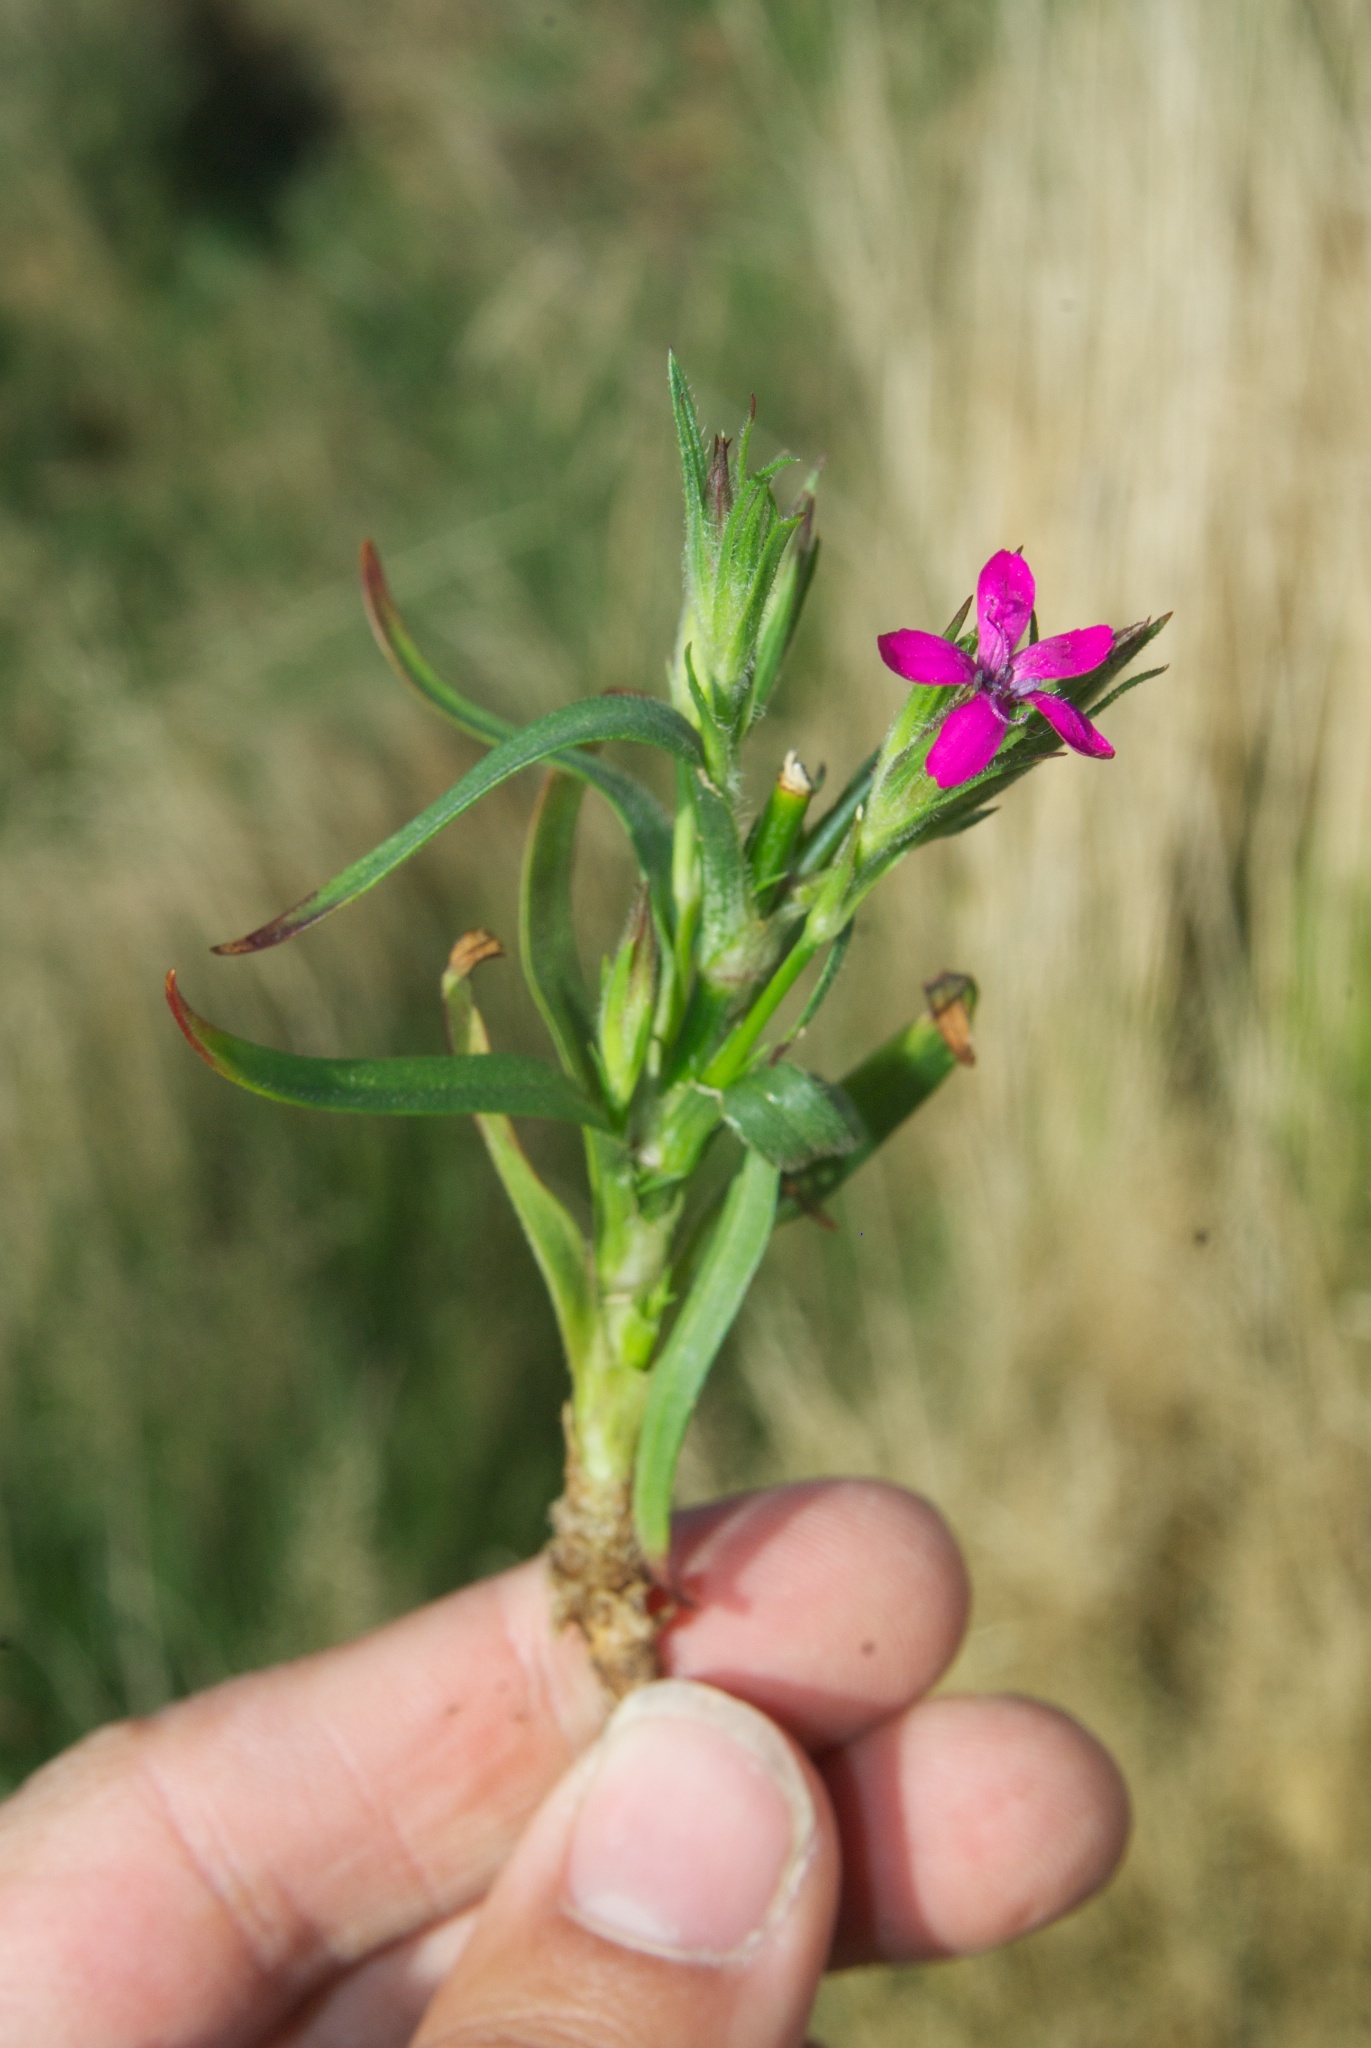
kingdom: Plantae
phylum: Tracheophyta
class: Magnoliopsida
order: Caryophyllales
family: Caryophyllaceae
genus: Dianthus
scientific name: Dianthus armeria
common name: Deptford pink
